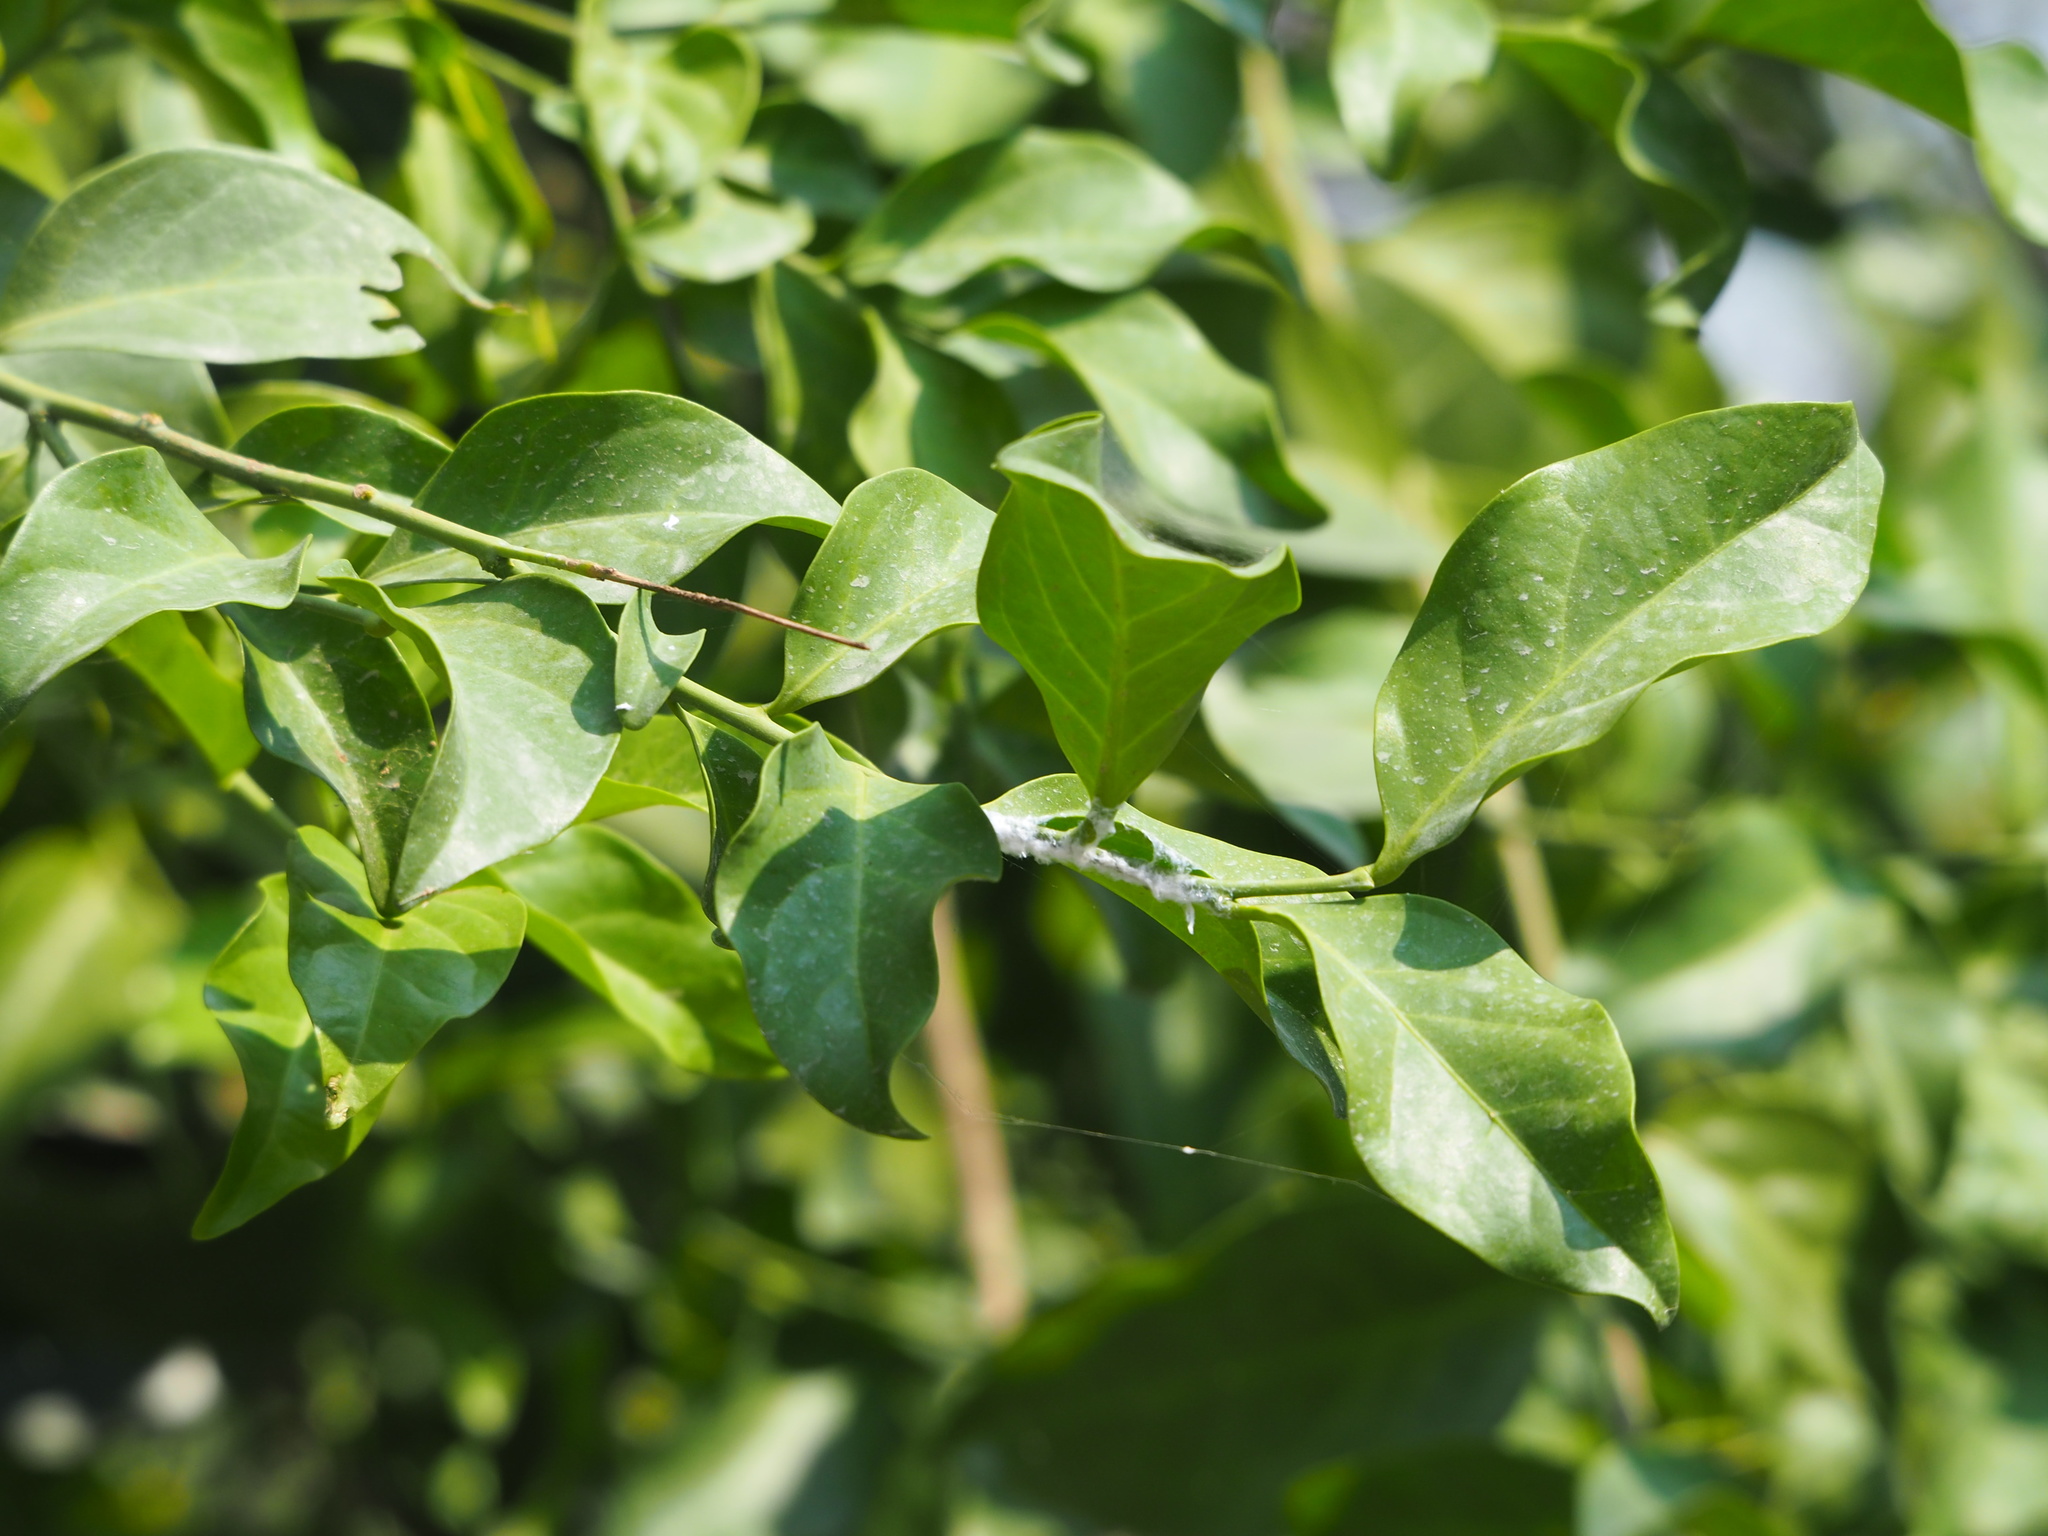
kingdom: Plantae
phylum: Tracheophyta
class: Magnoliopsida
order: Santalales
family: Opiliaceae
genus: Champereia
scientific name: Champereia manillana
